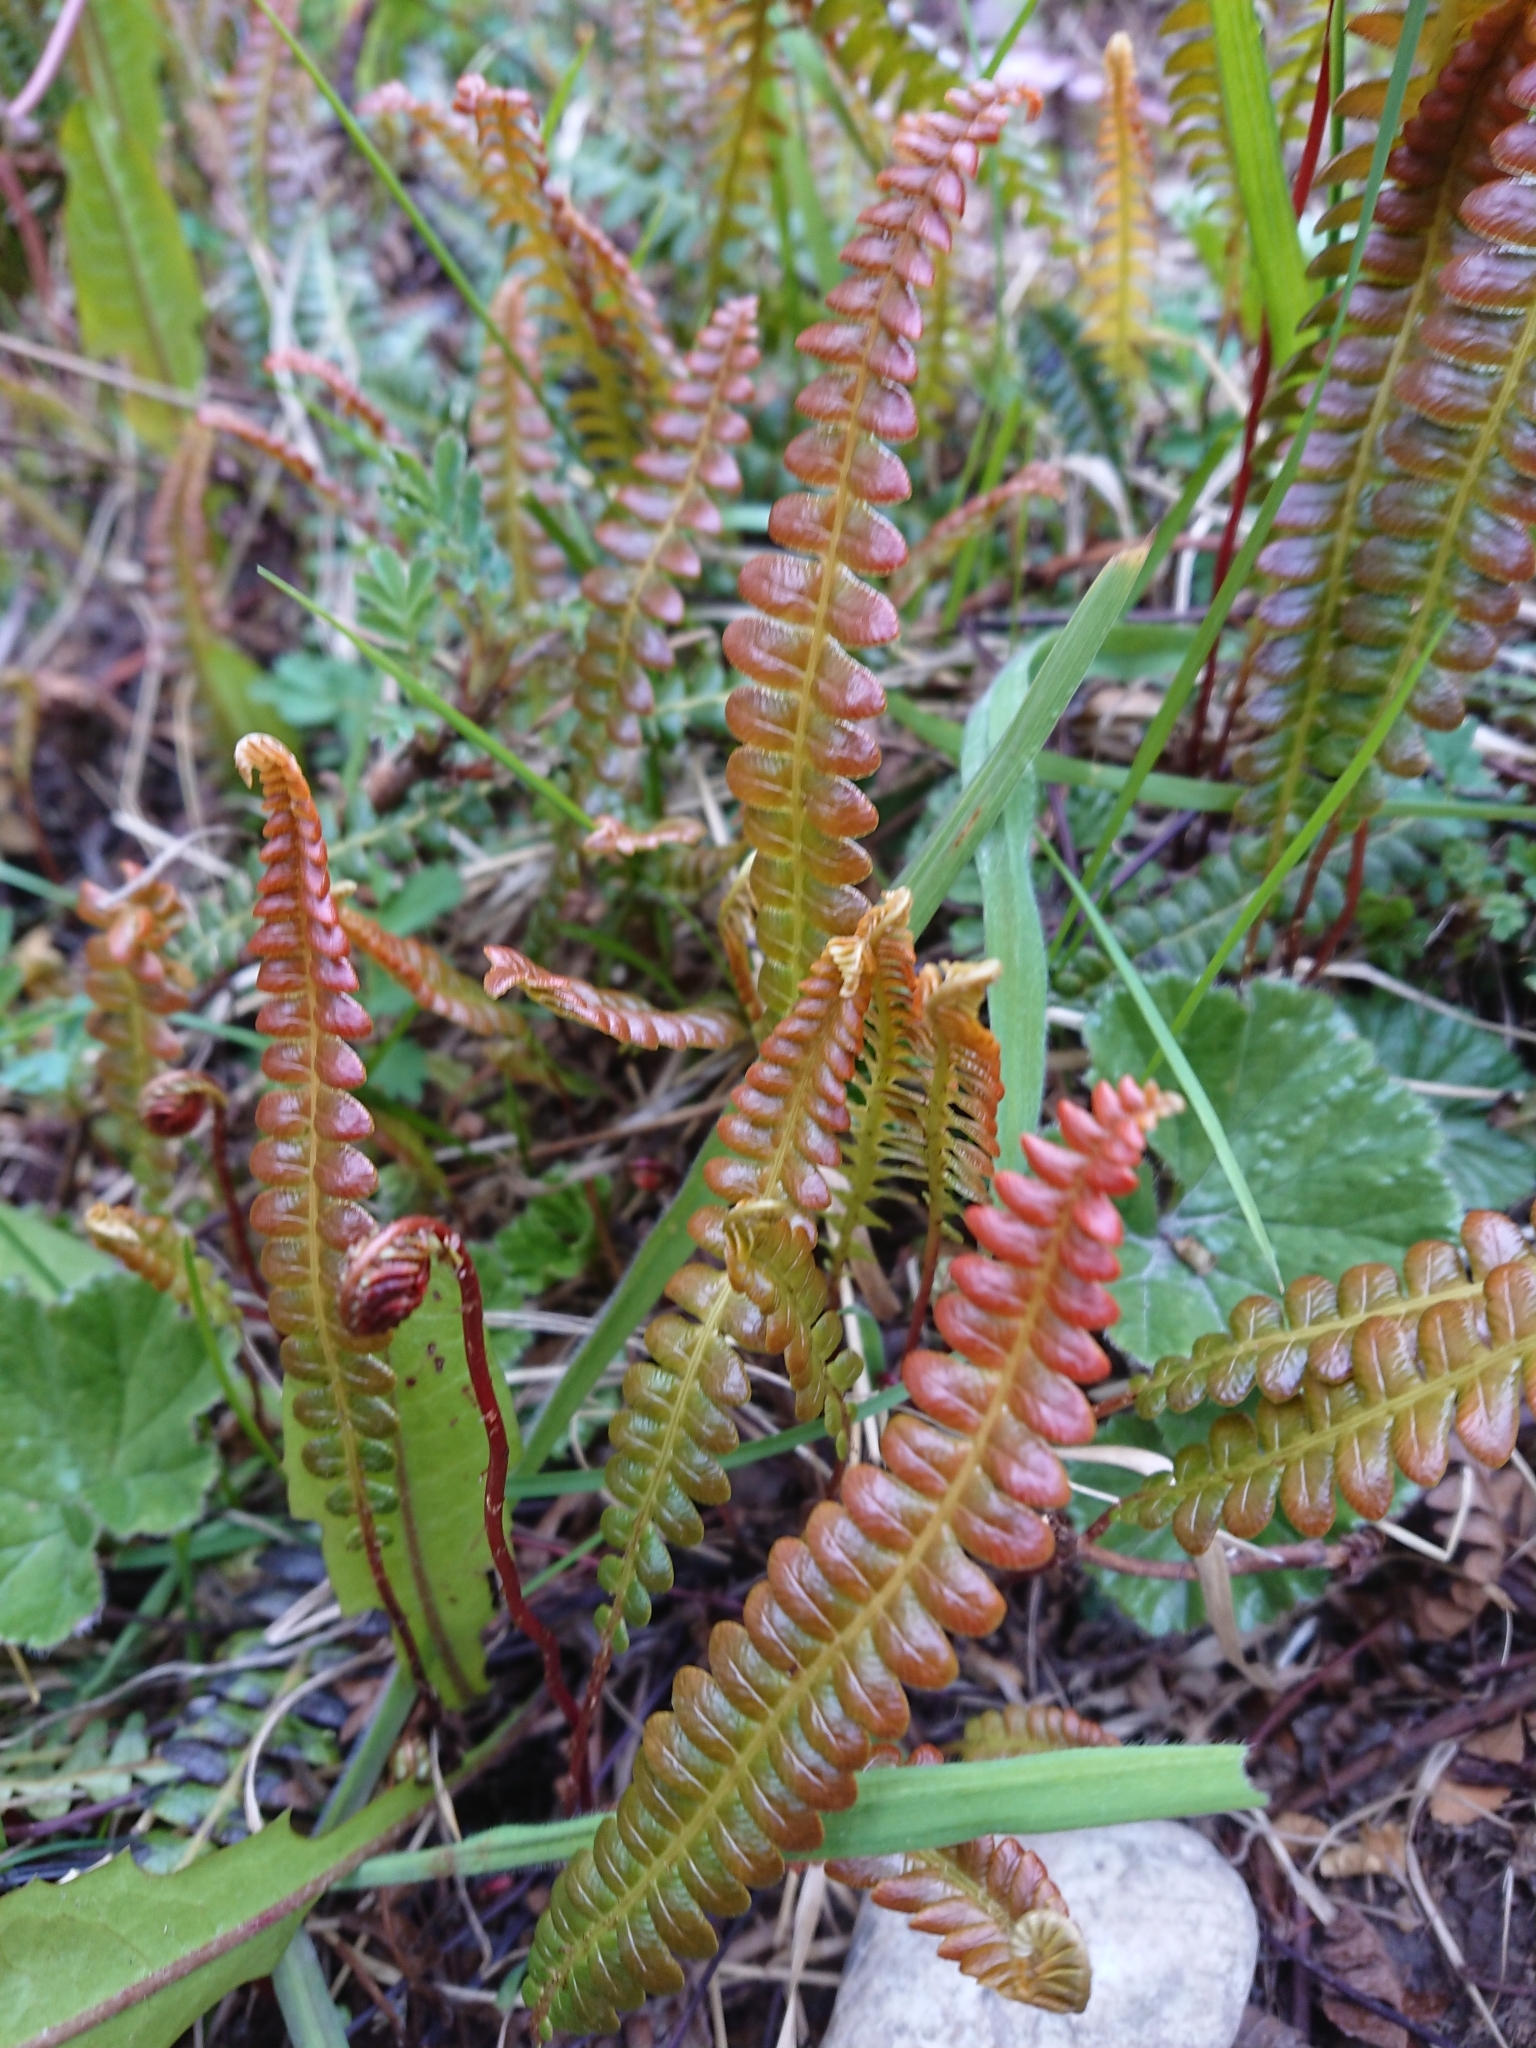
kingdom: Plantae
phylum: Tracheophyta
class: Polypodiopsida
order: Polypodiales
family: Blechnaceae
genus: Austroblechnum
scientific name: Austroblechnum penna-marina
